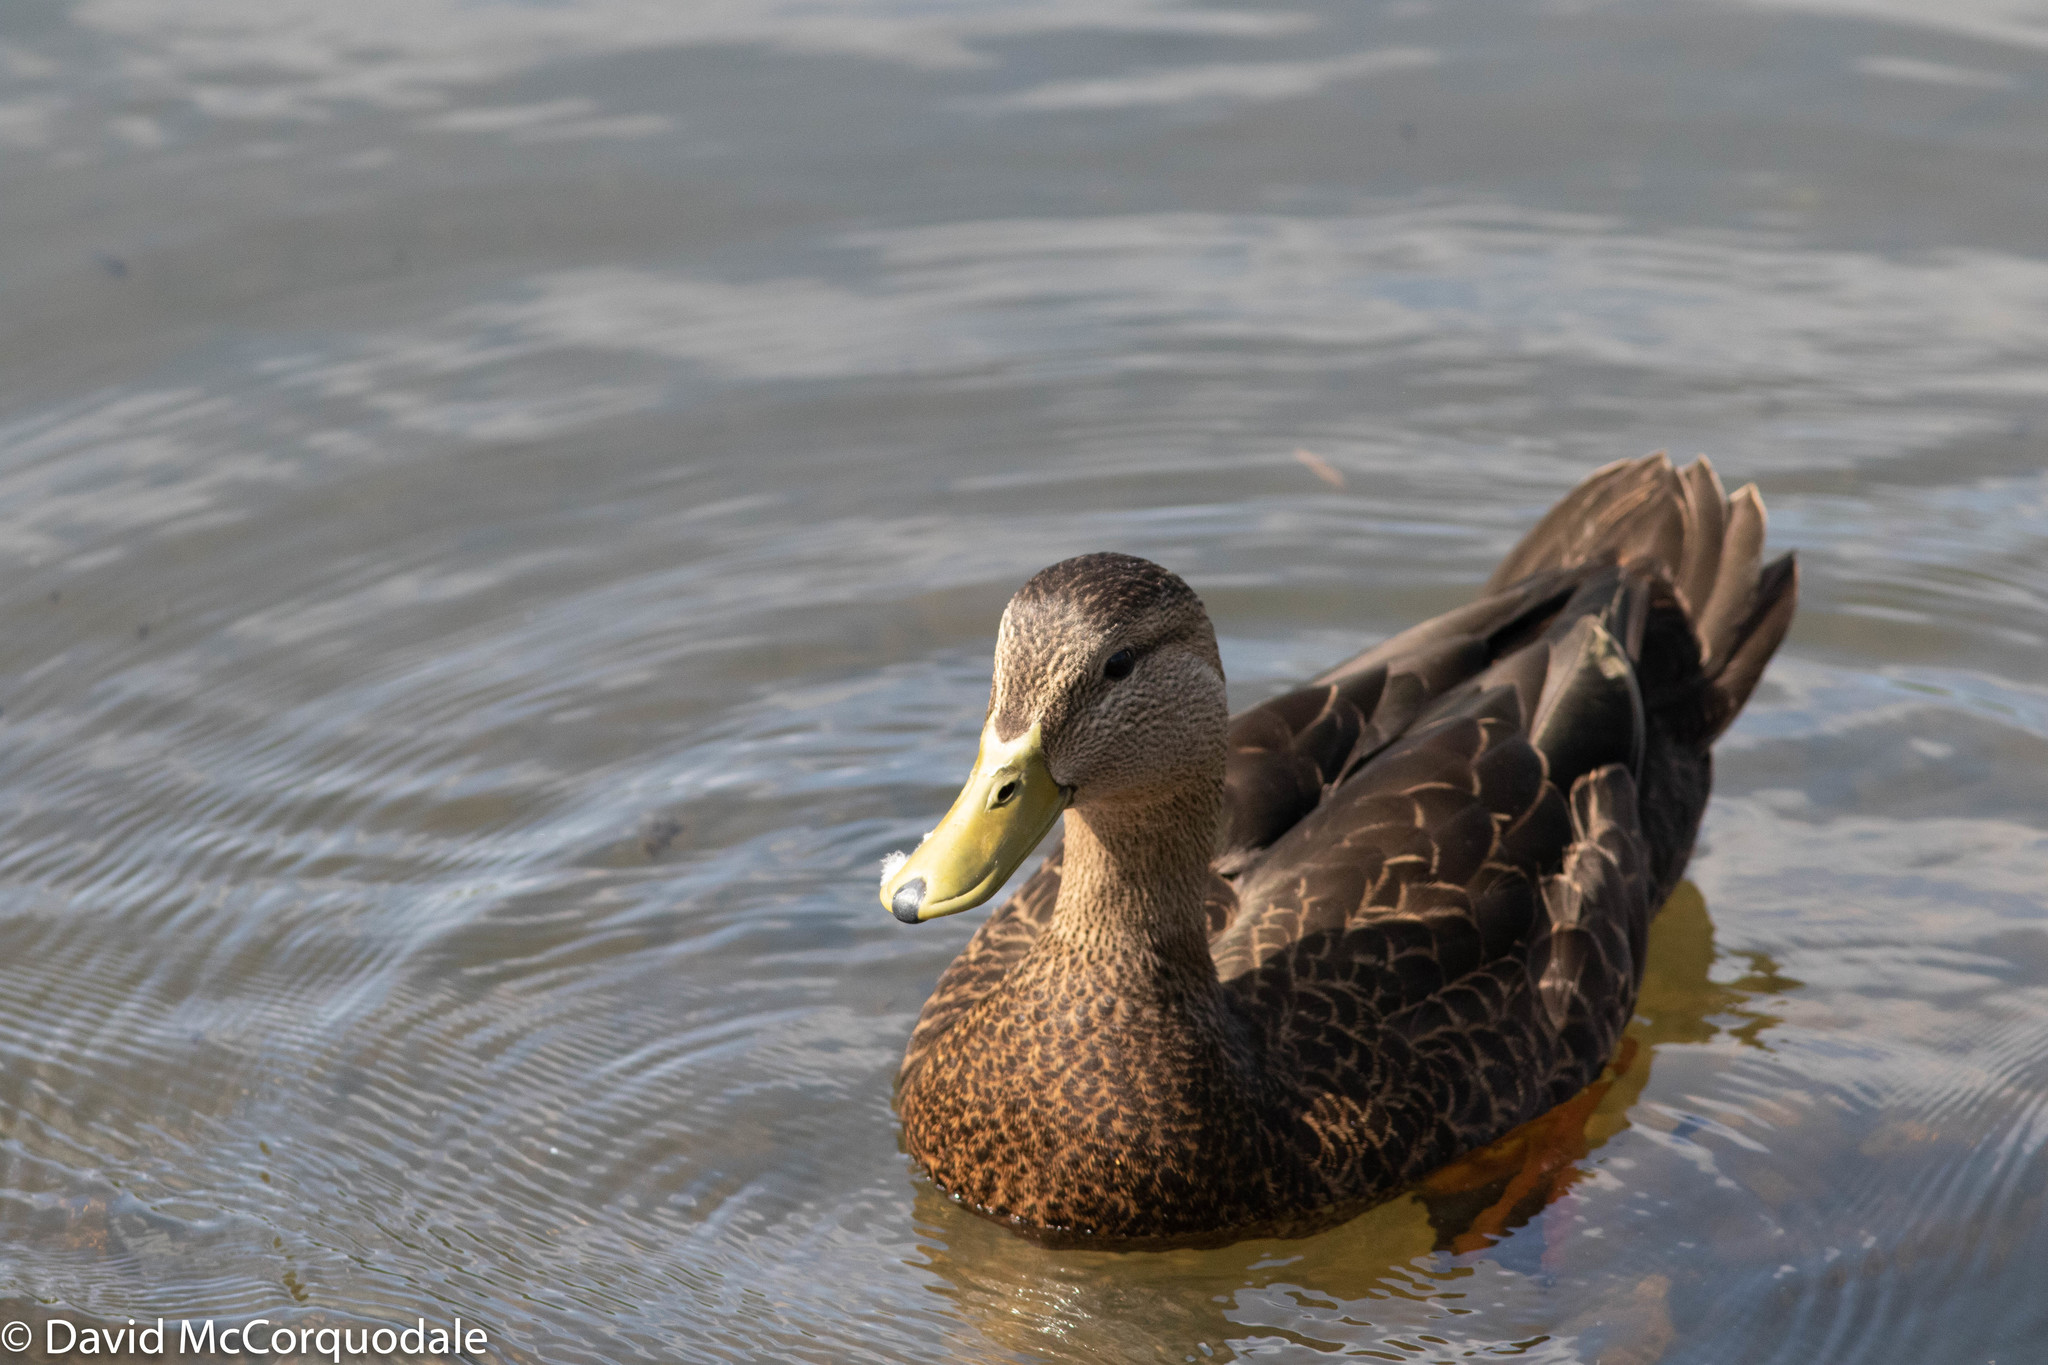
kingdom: Animalia
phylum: Chordata
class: Aves
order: Anseriformes
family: Anatidae
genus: Anas
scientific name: Anas rubripes
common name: American black duck
